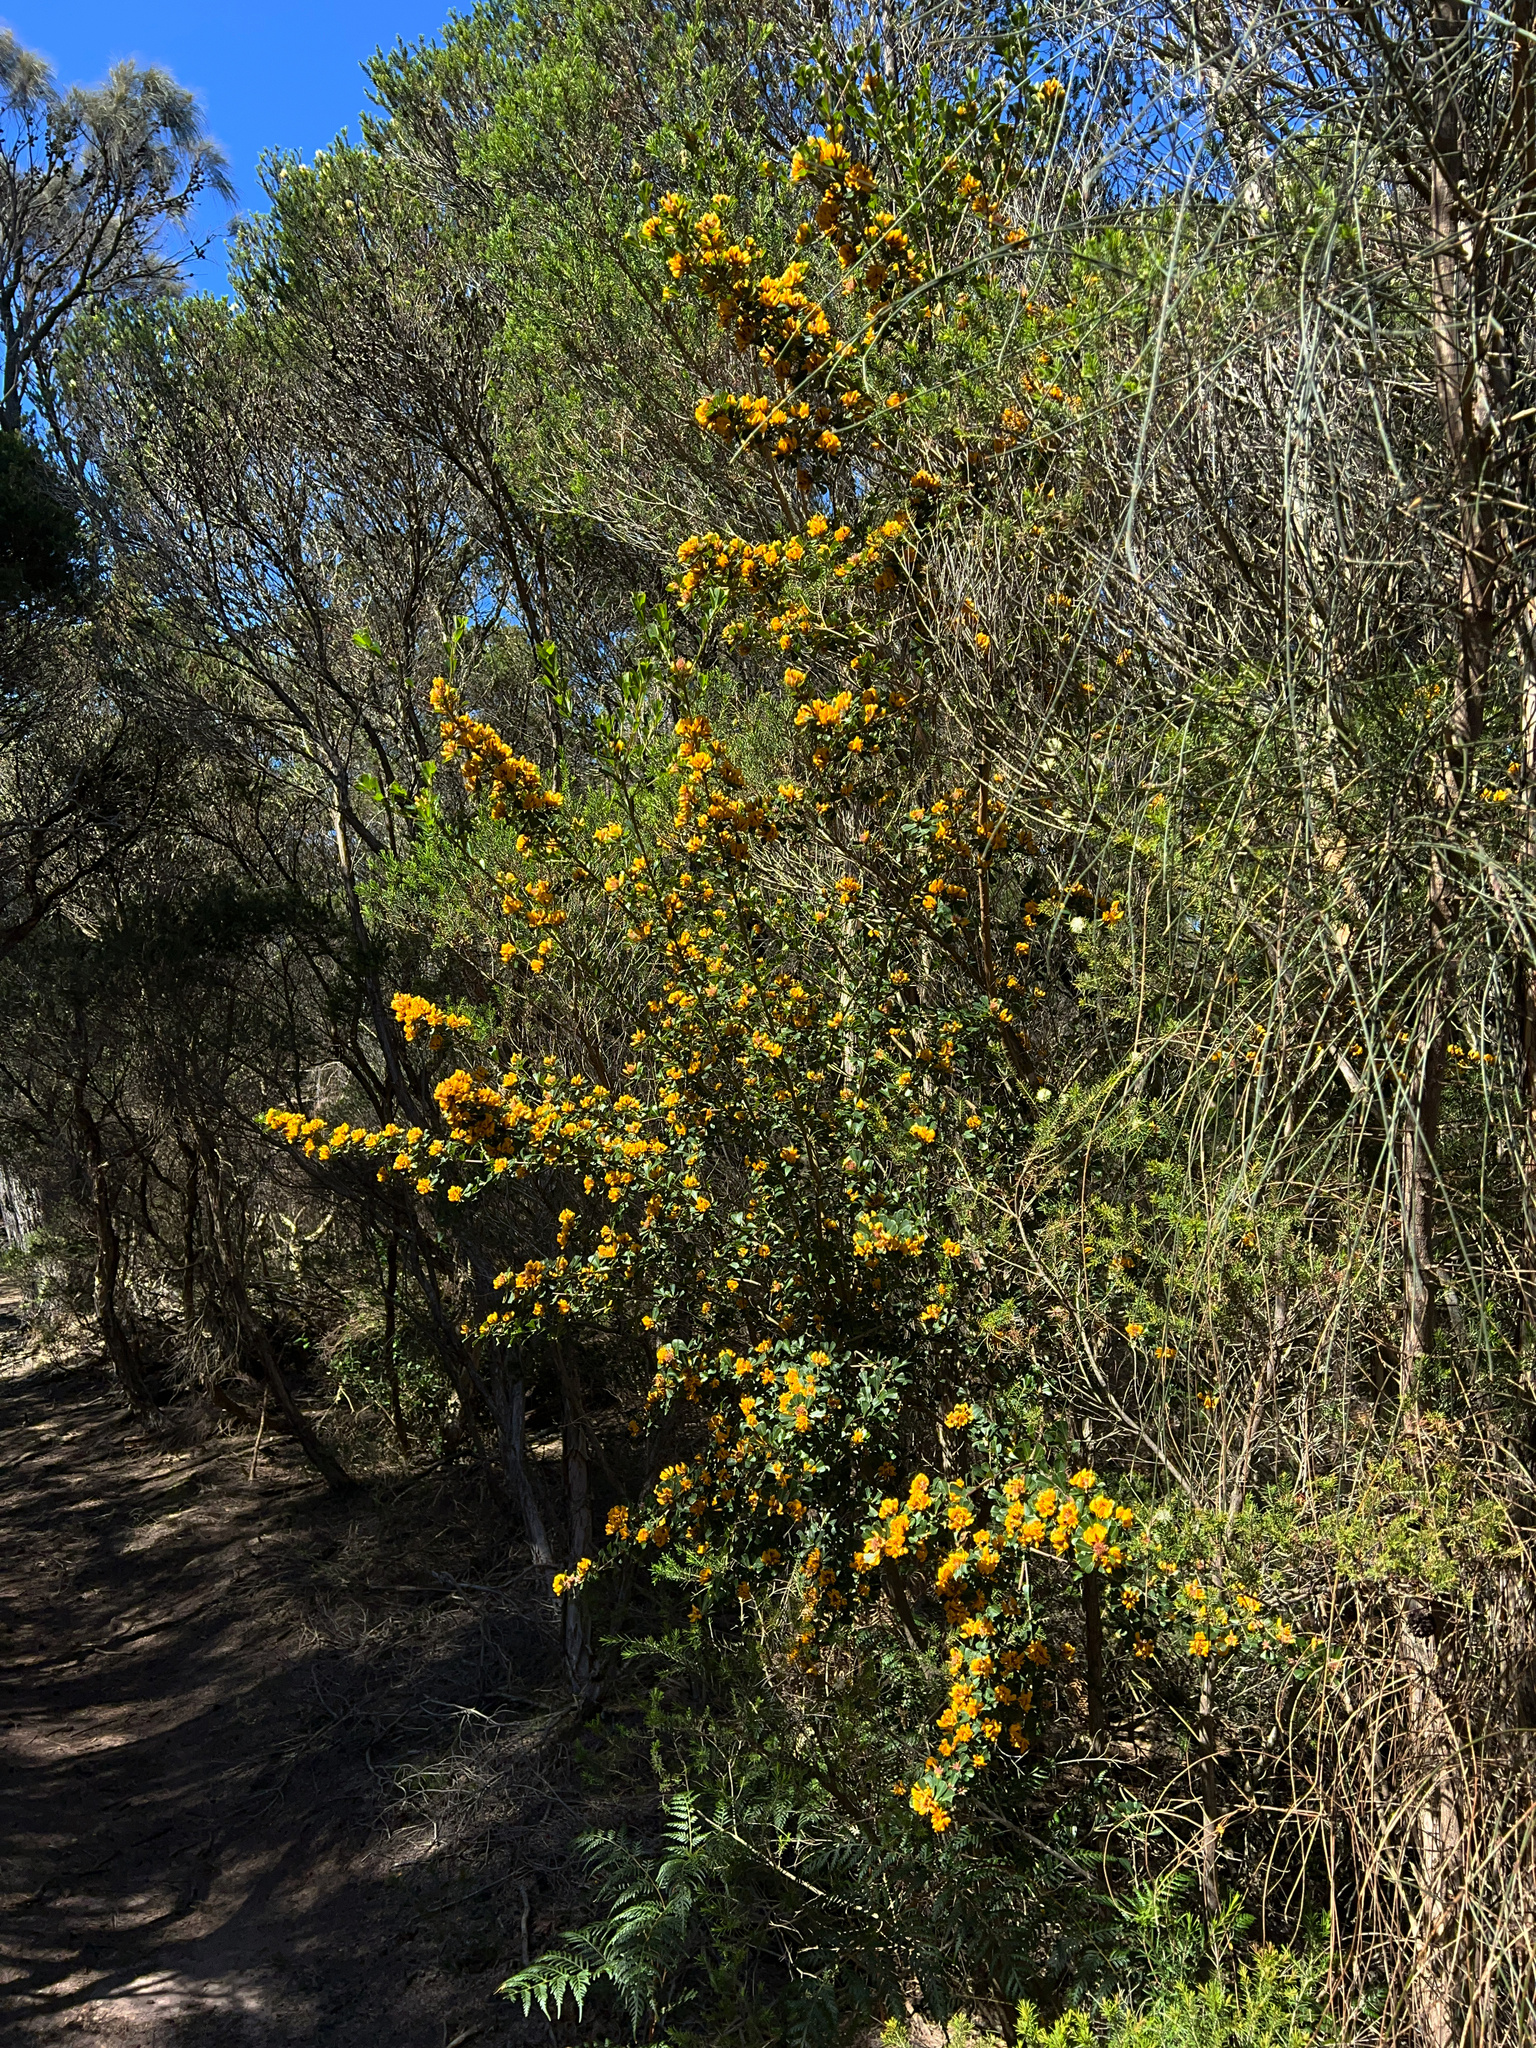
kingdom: Plantae
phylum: Tracheophyta
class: Magnoliopsida
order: Fabales
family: Fabaceae
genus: Pultenaea
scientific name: Pultenaea daphnoides
